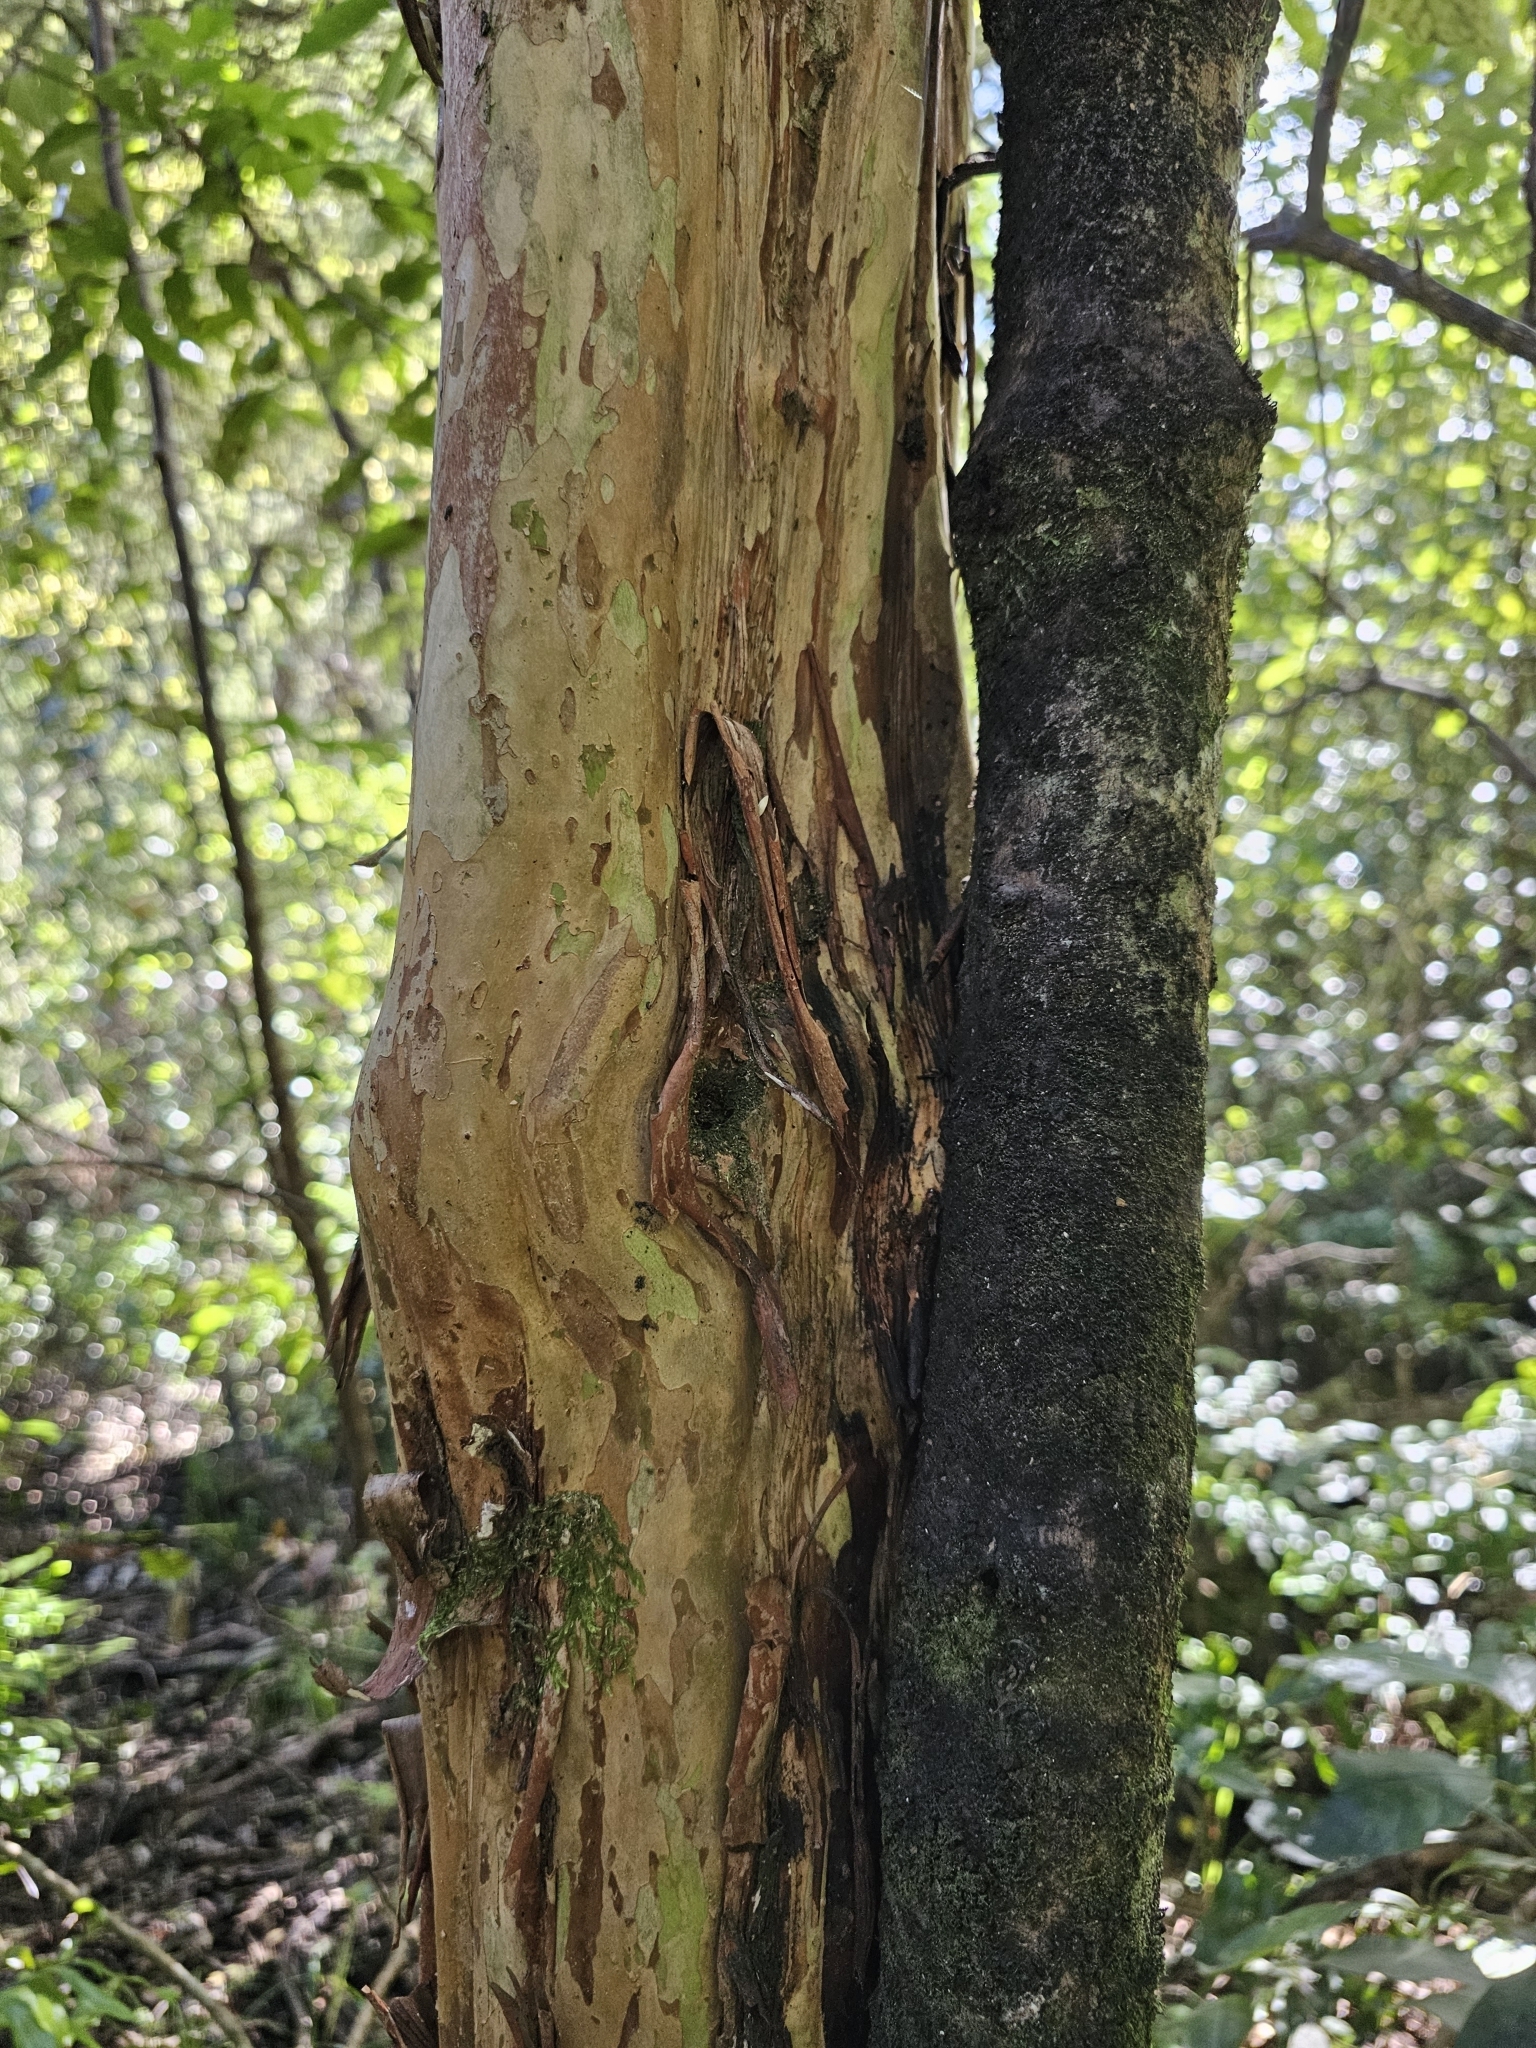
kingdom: Plantae
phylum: Tracheophyta
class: Magnoliopsida
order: Myrtales
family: Myrtaceae
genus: Lophomyrtus
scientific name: Lophomyrtus obcordata
